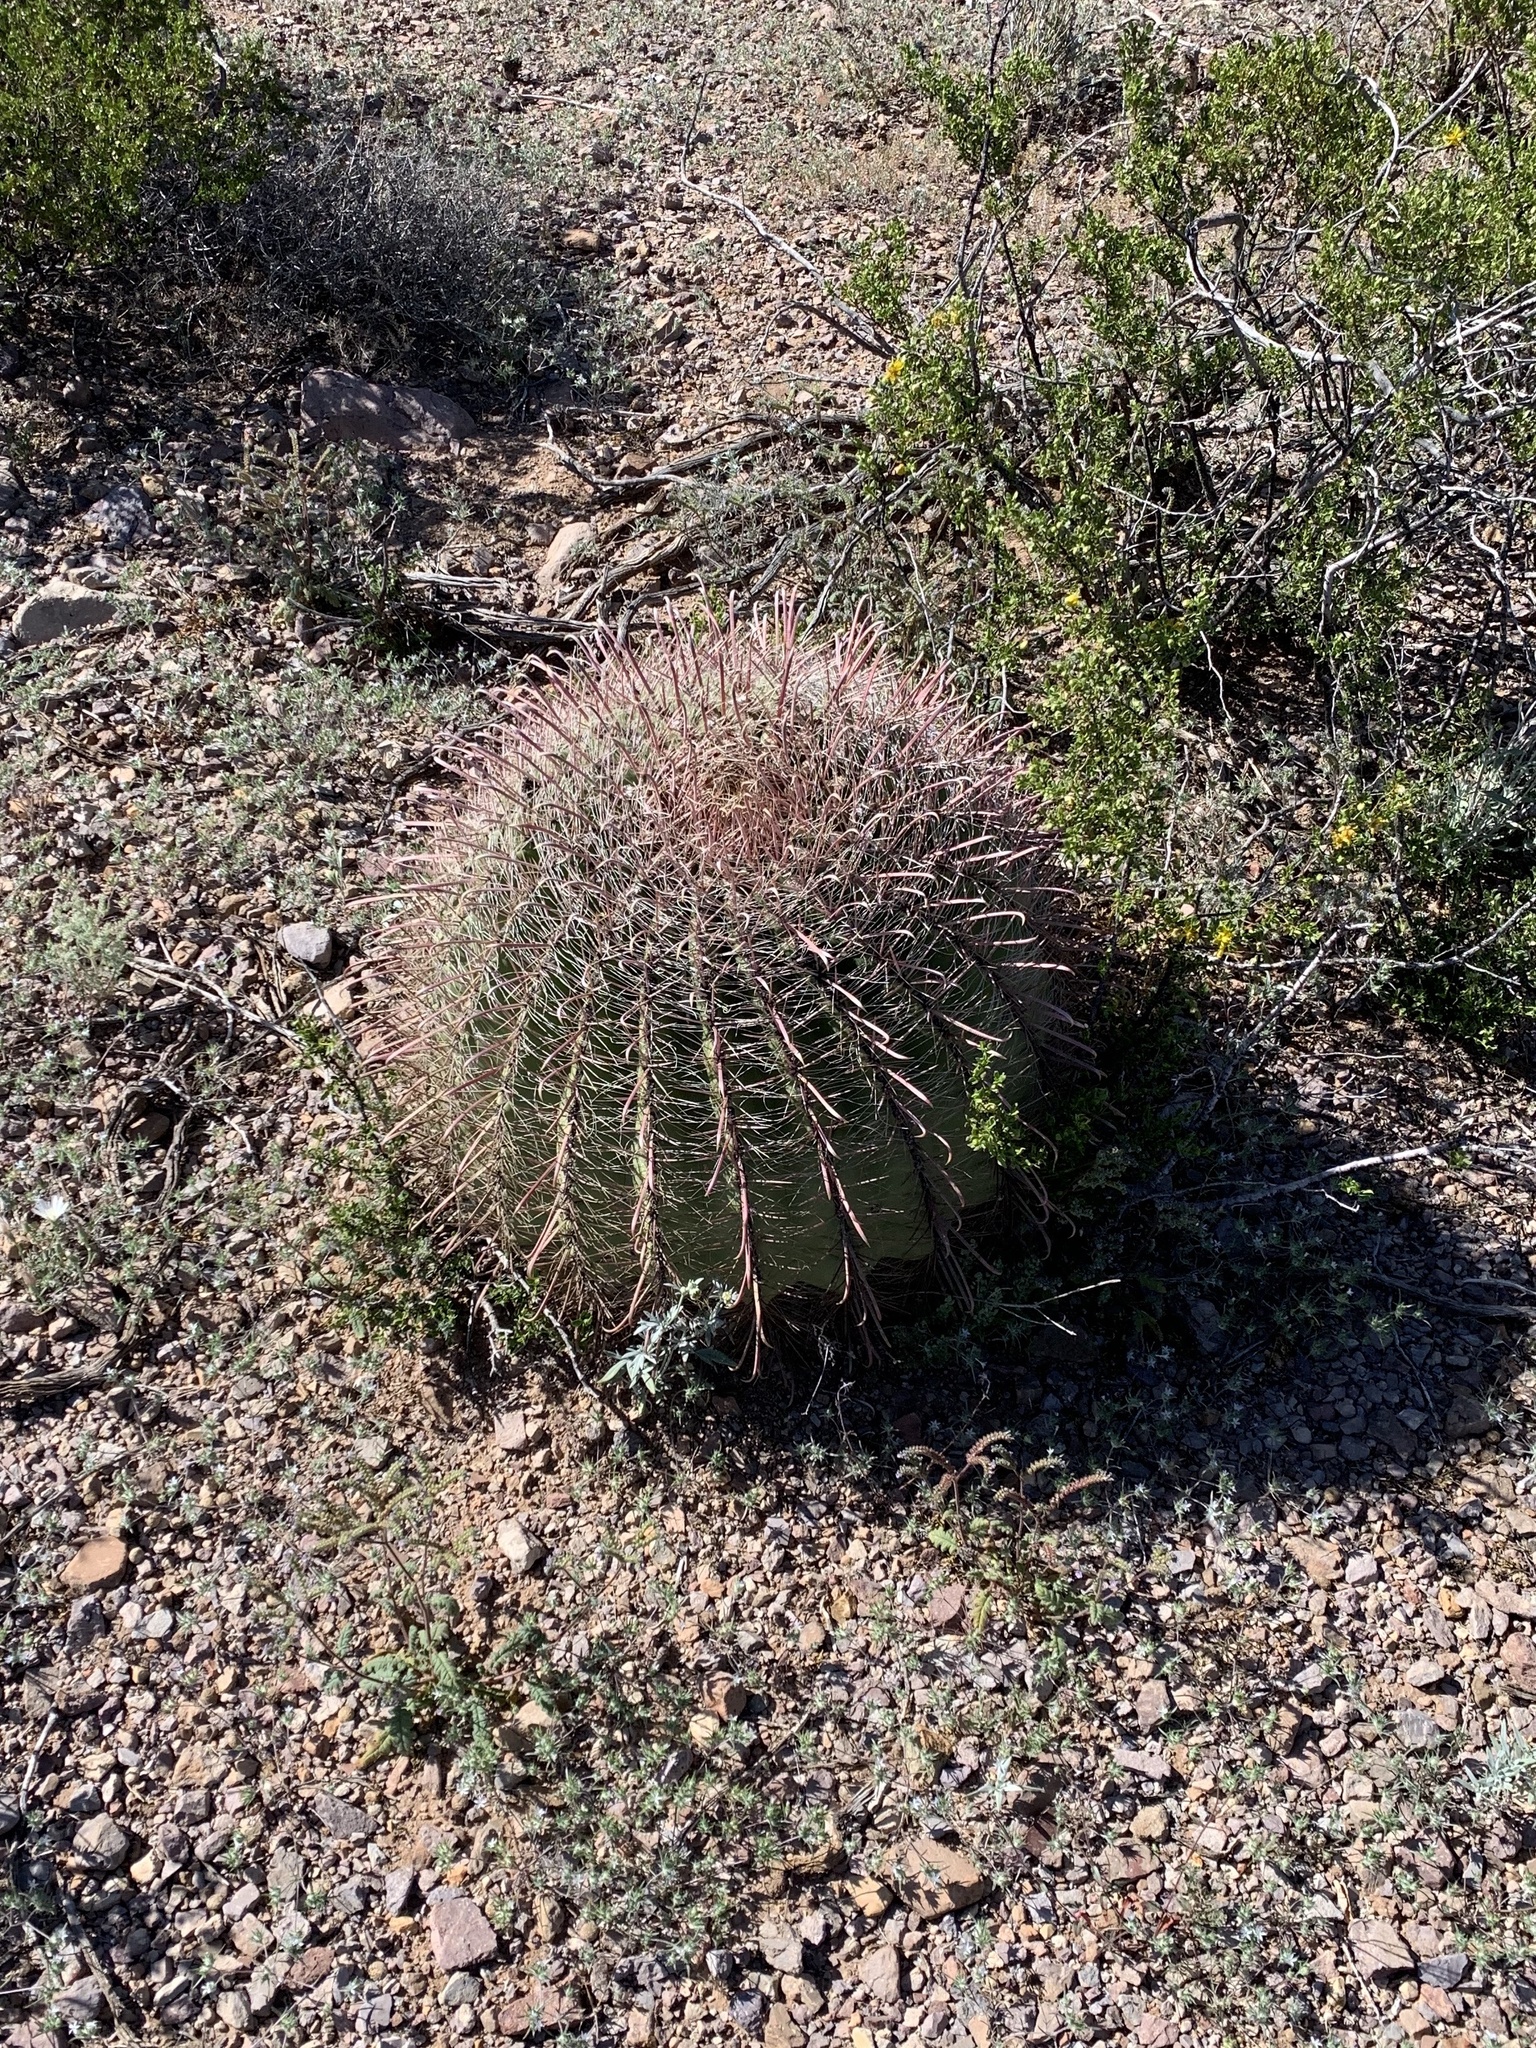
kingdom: Plantae
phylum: Tracheophyta
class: Magnoliopsida
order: Caryophyllales
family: Cactaceae
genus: Ferocactus
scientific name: Ferocactus wislizeni
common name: Candy barrel cactus
